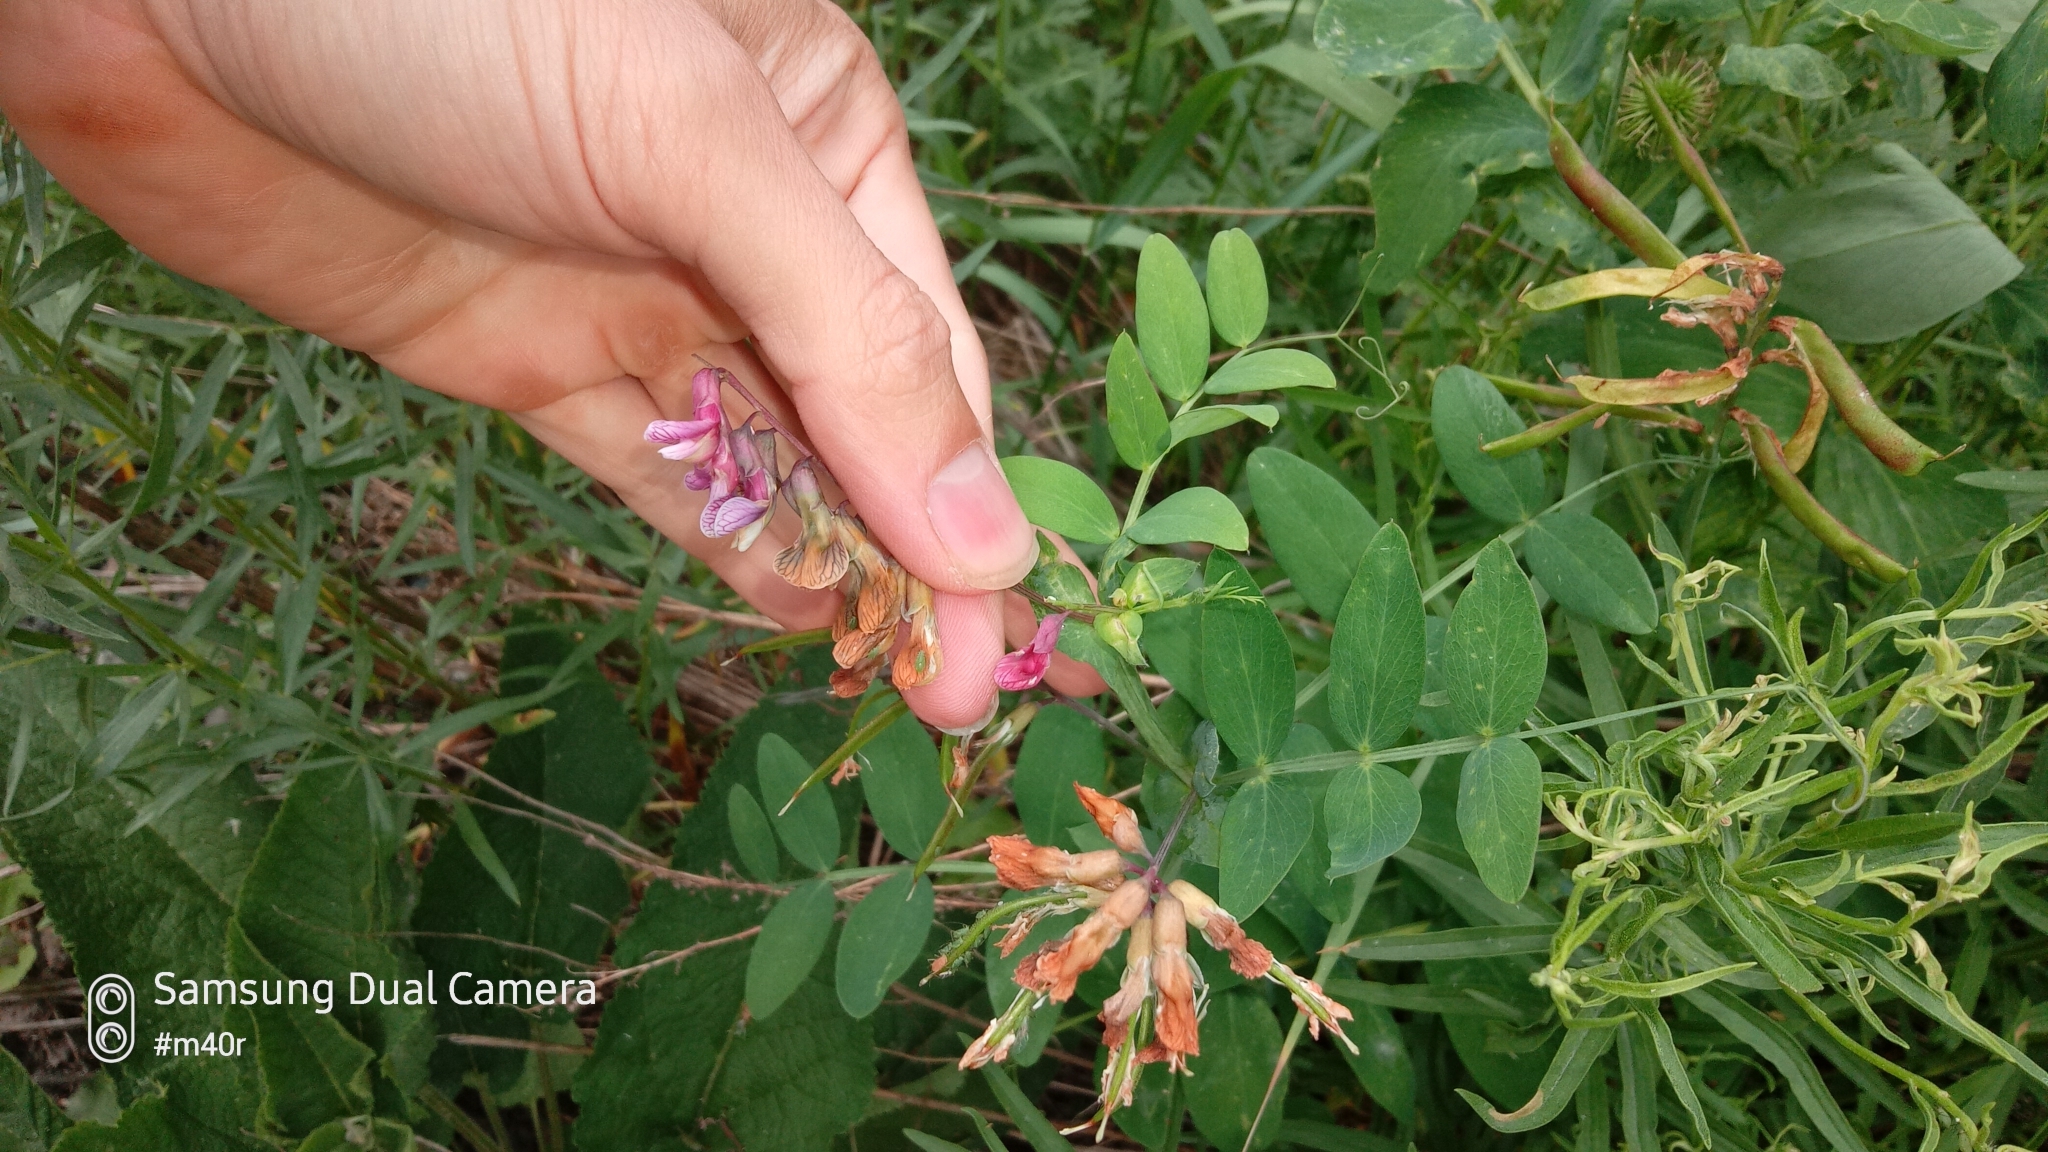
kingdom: Plantae
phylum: Tracheophyta
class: Magnoliopsida
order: Fabales
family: Fabaceae
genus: Lathyrus
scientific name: Lathyrus gmelinii
